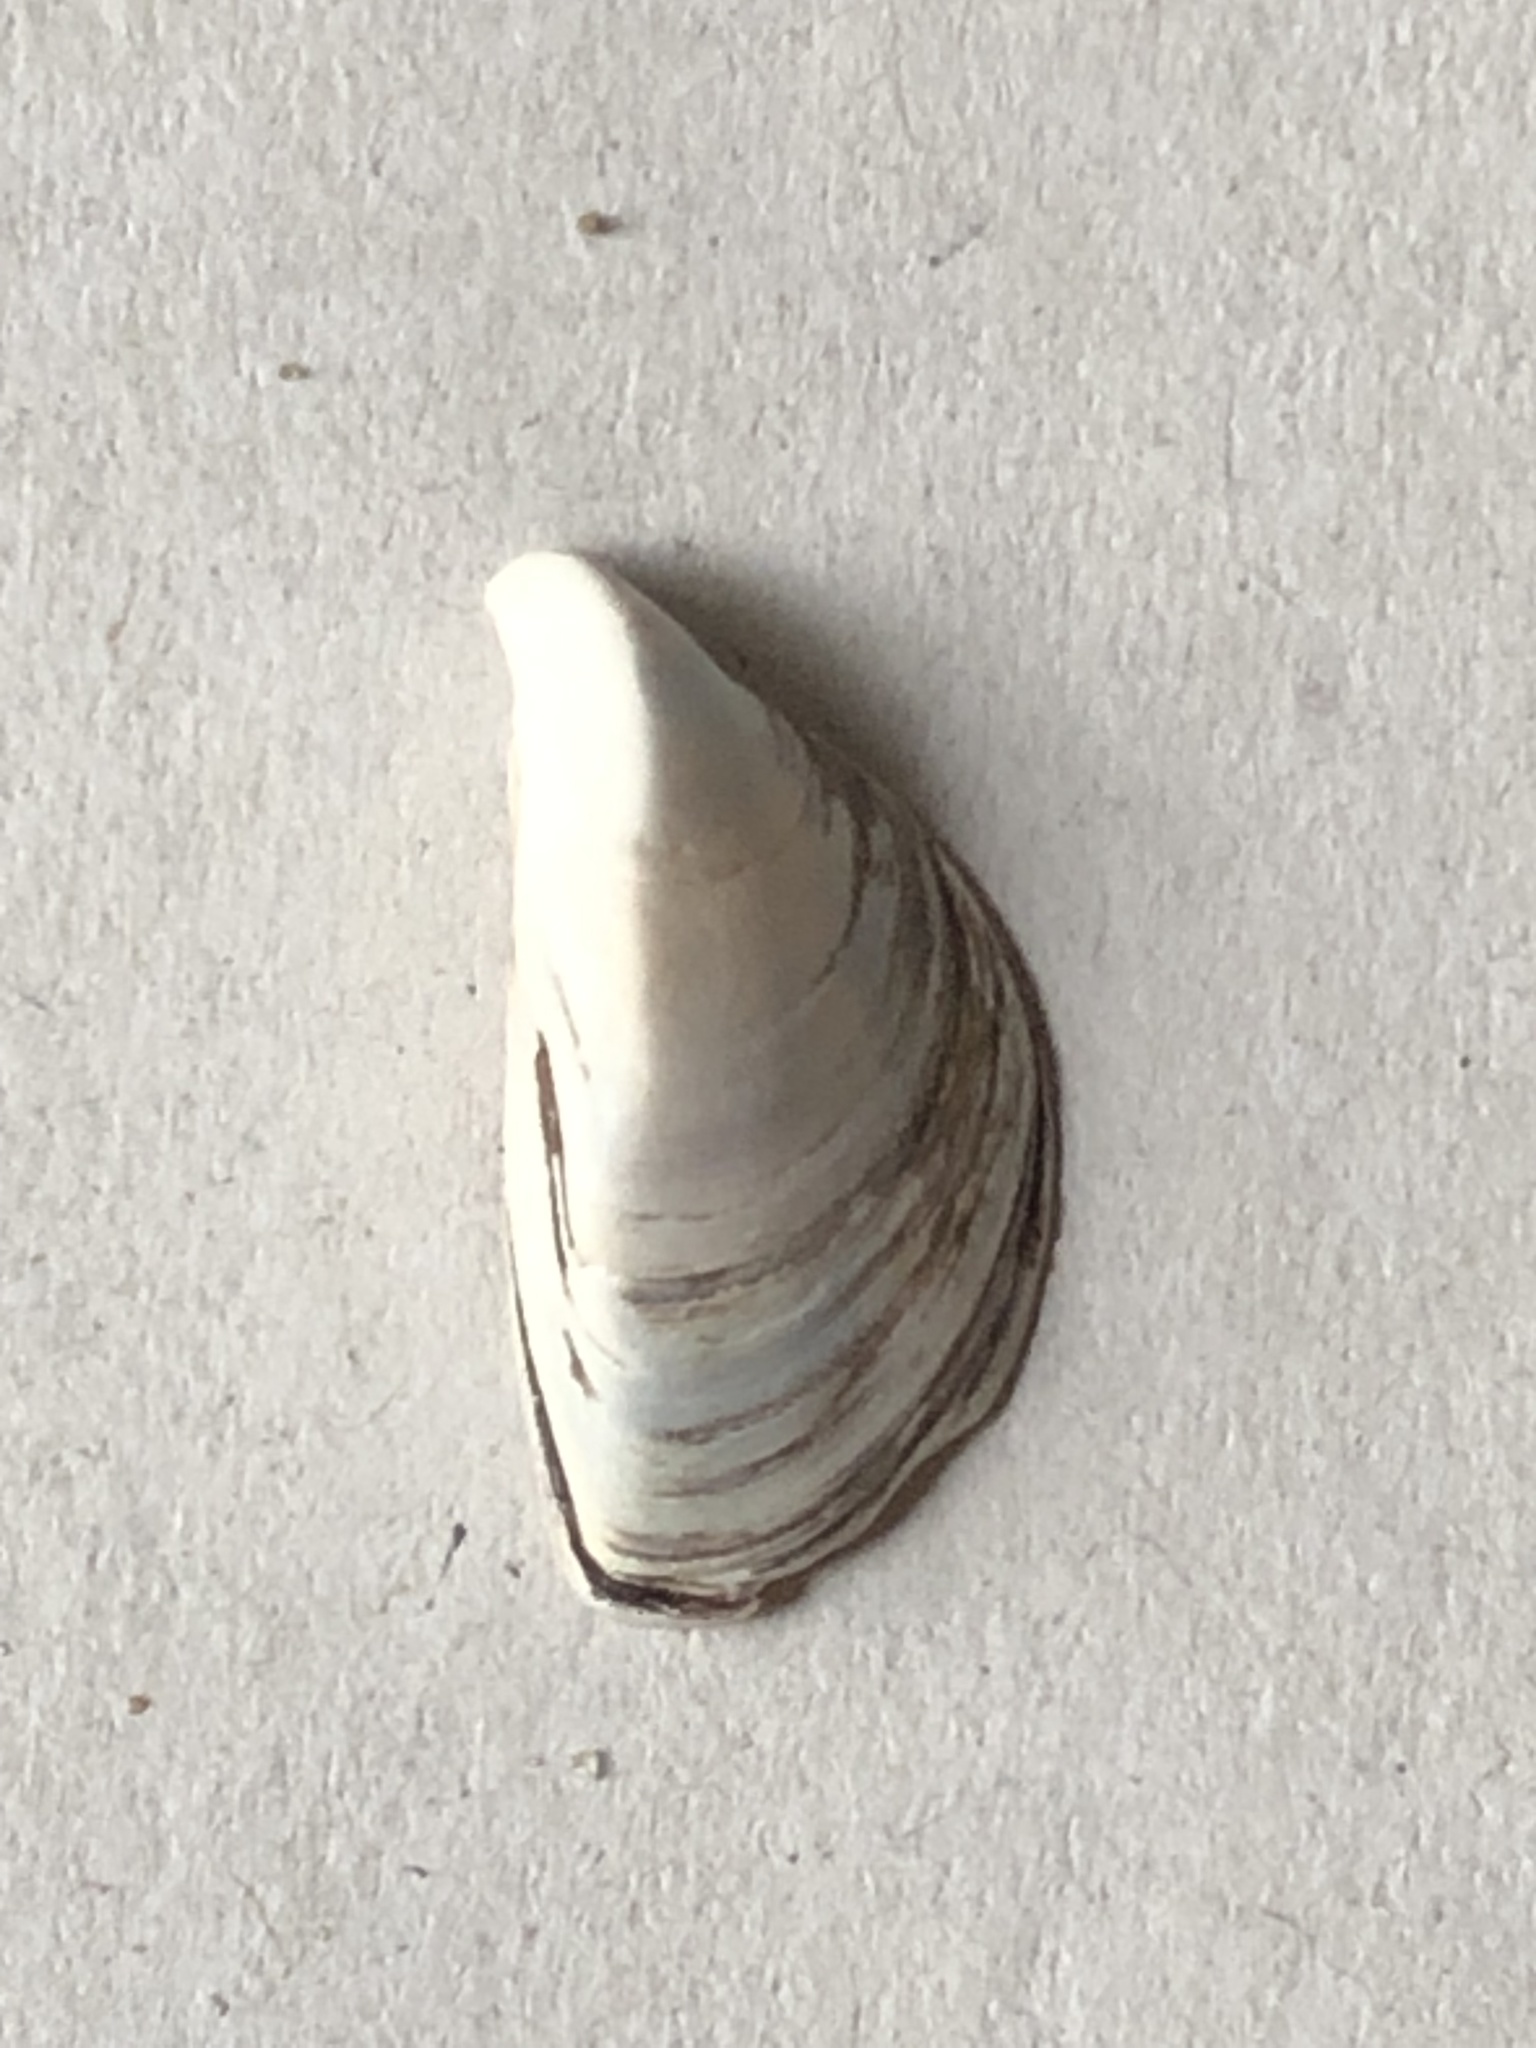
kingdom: Animalia
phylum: Mollusca
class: Bivalvia
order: Myida
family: Dreissenidae
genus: Dreissena
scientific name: Dreissena polymorpha
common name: Zebra mussel
